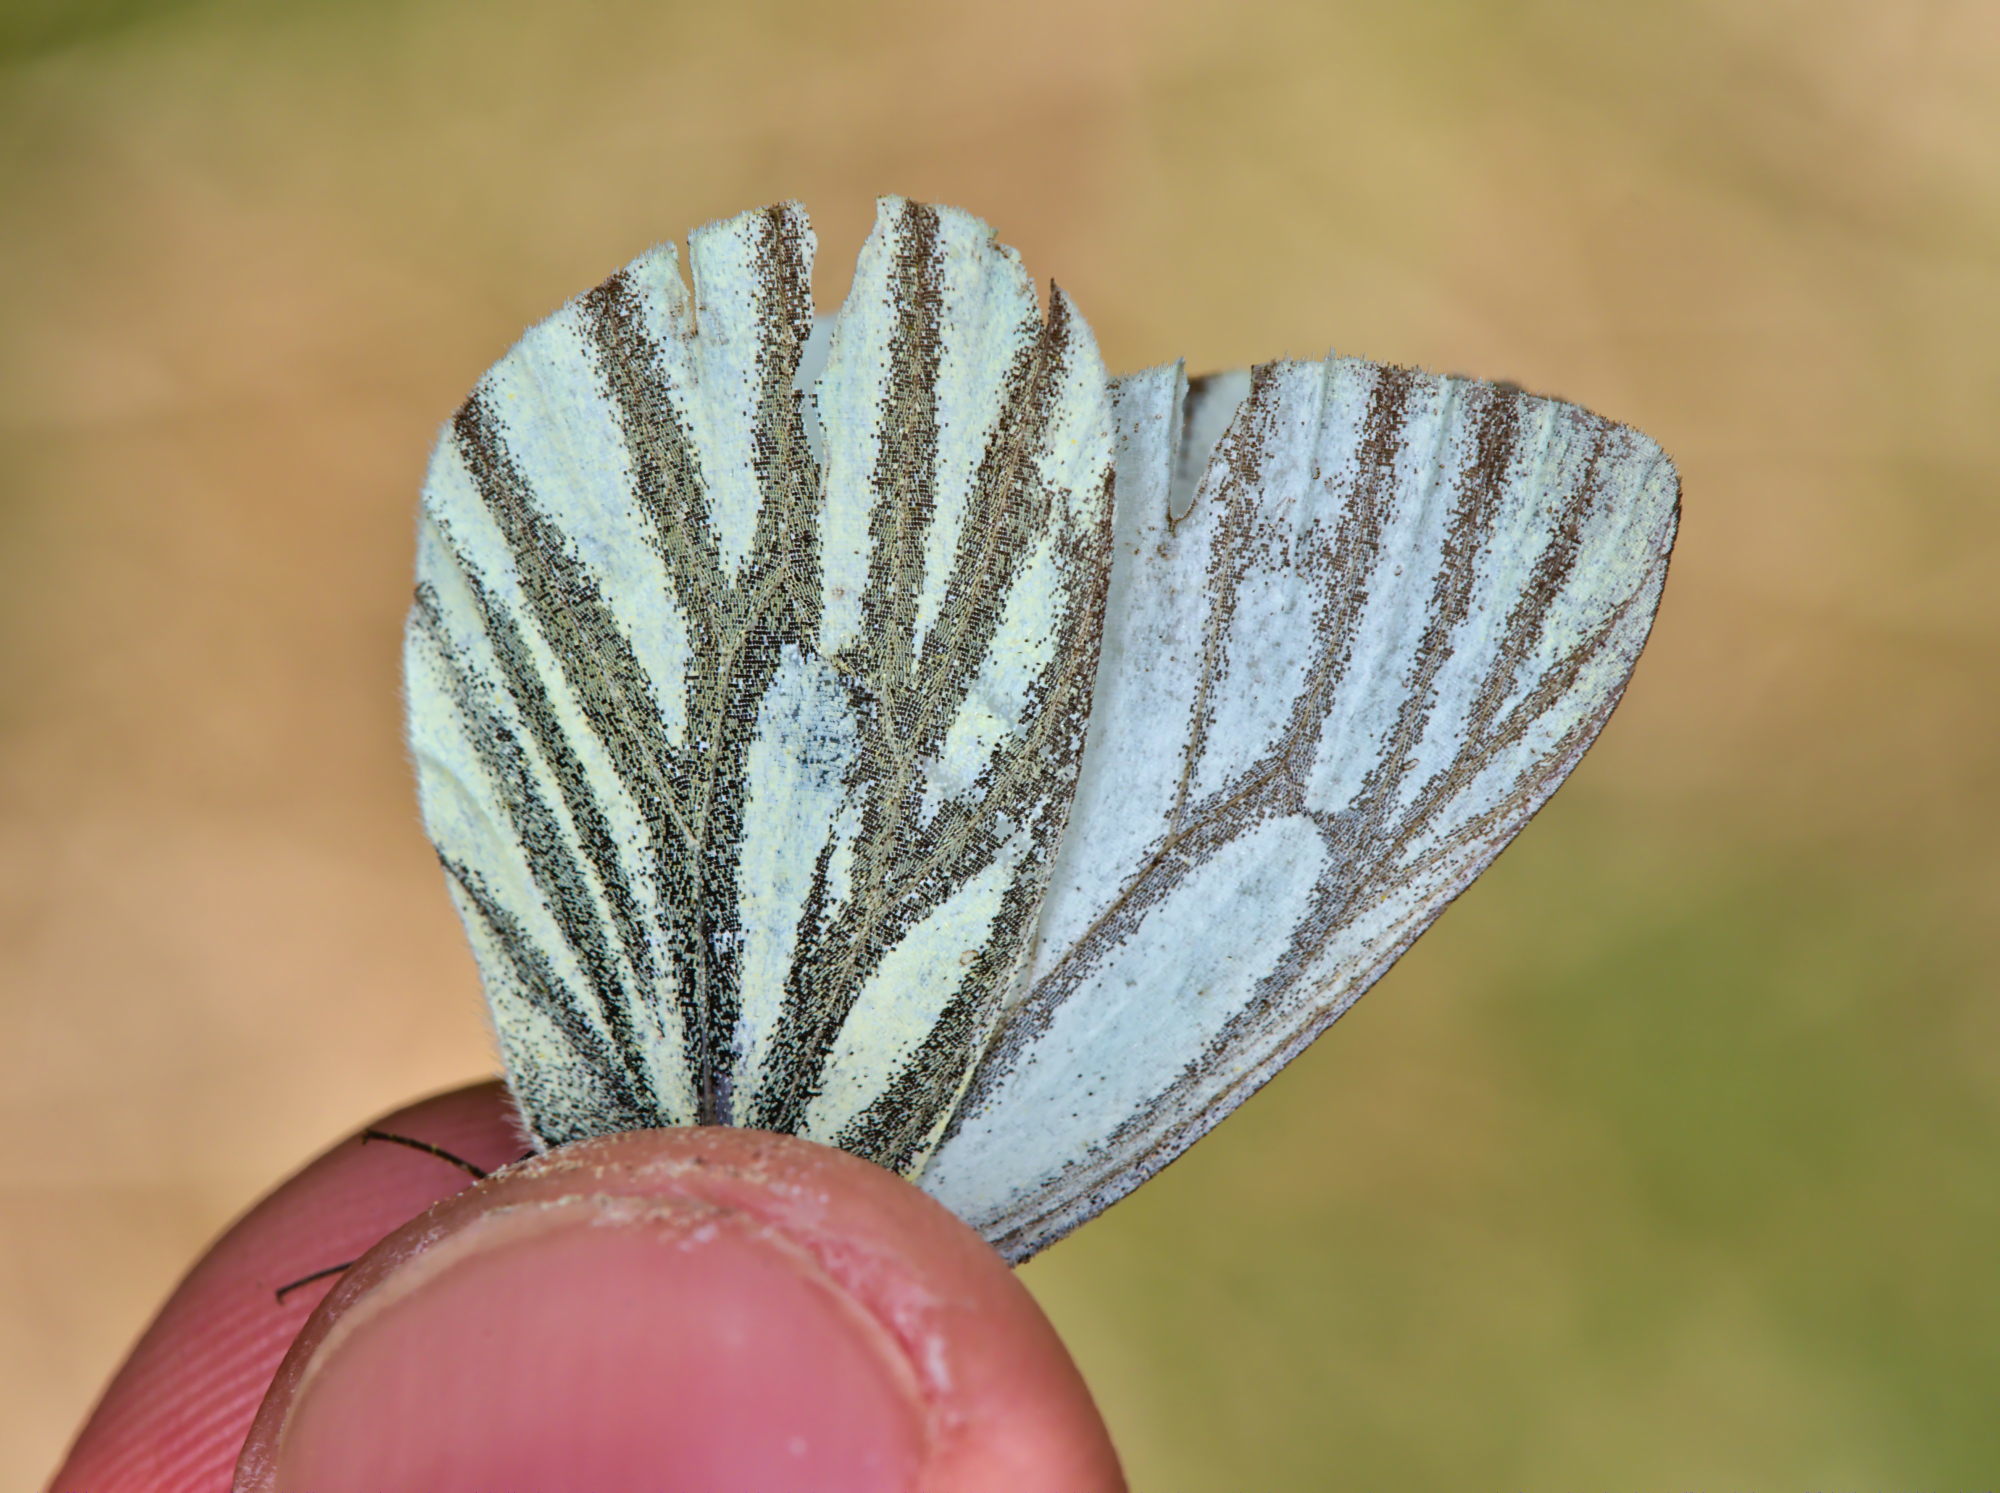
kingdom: Animalia
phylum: Arthropoda
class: Insecta
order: Lepidoptera
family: Pieridae
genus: Pieris
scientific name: Pieris napi
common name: Green-veined white
